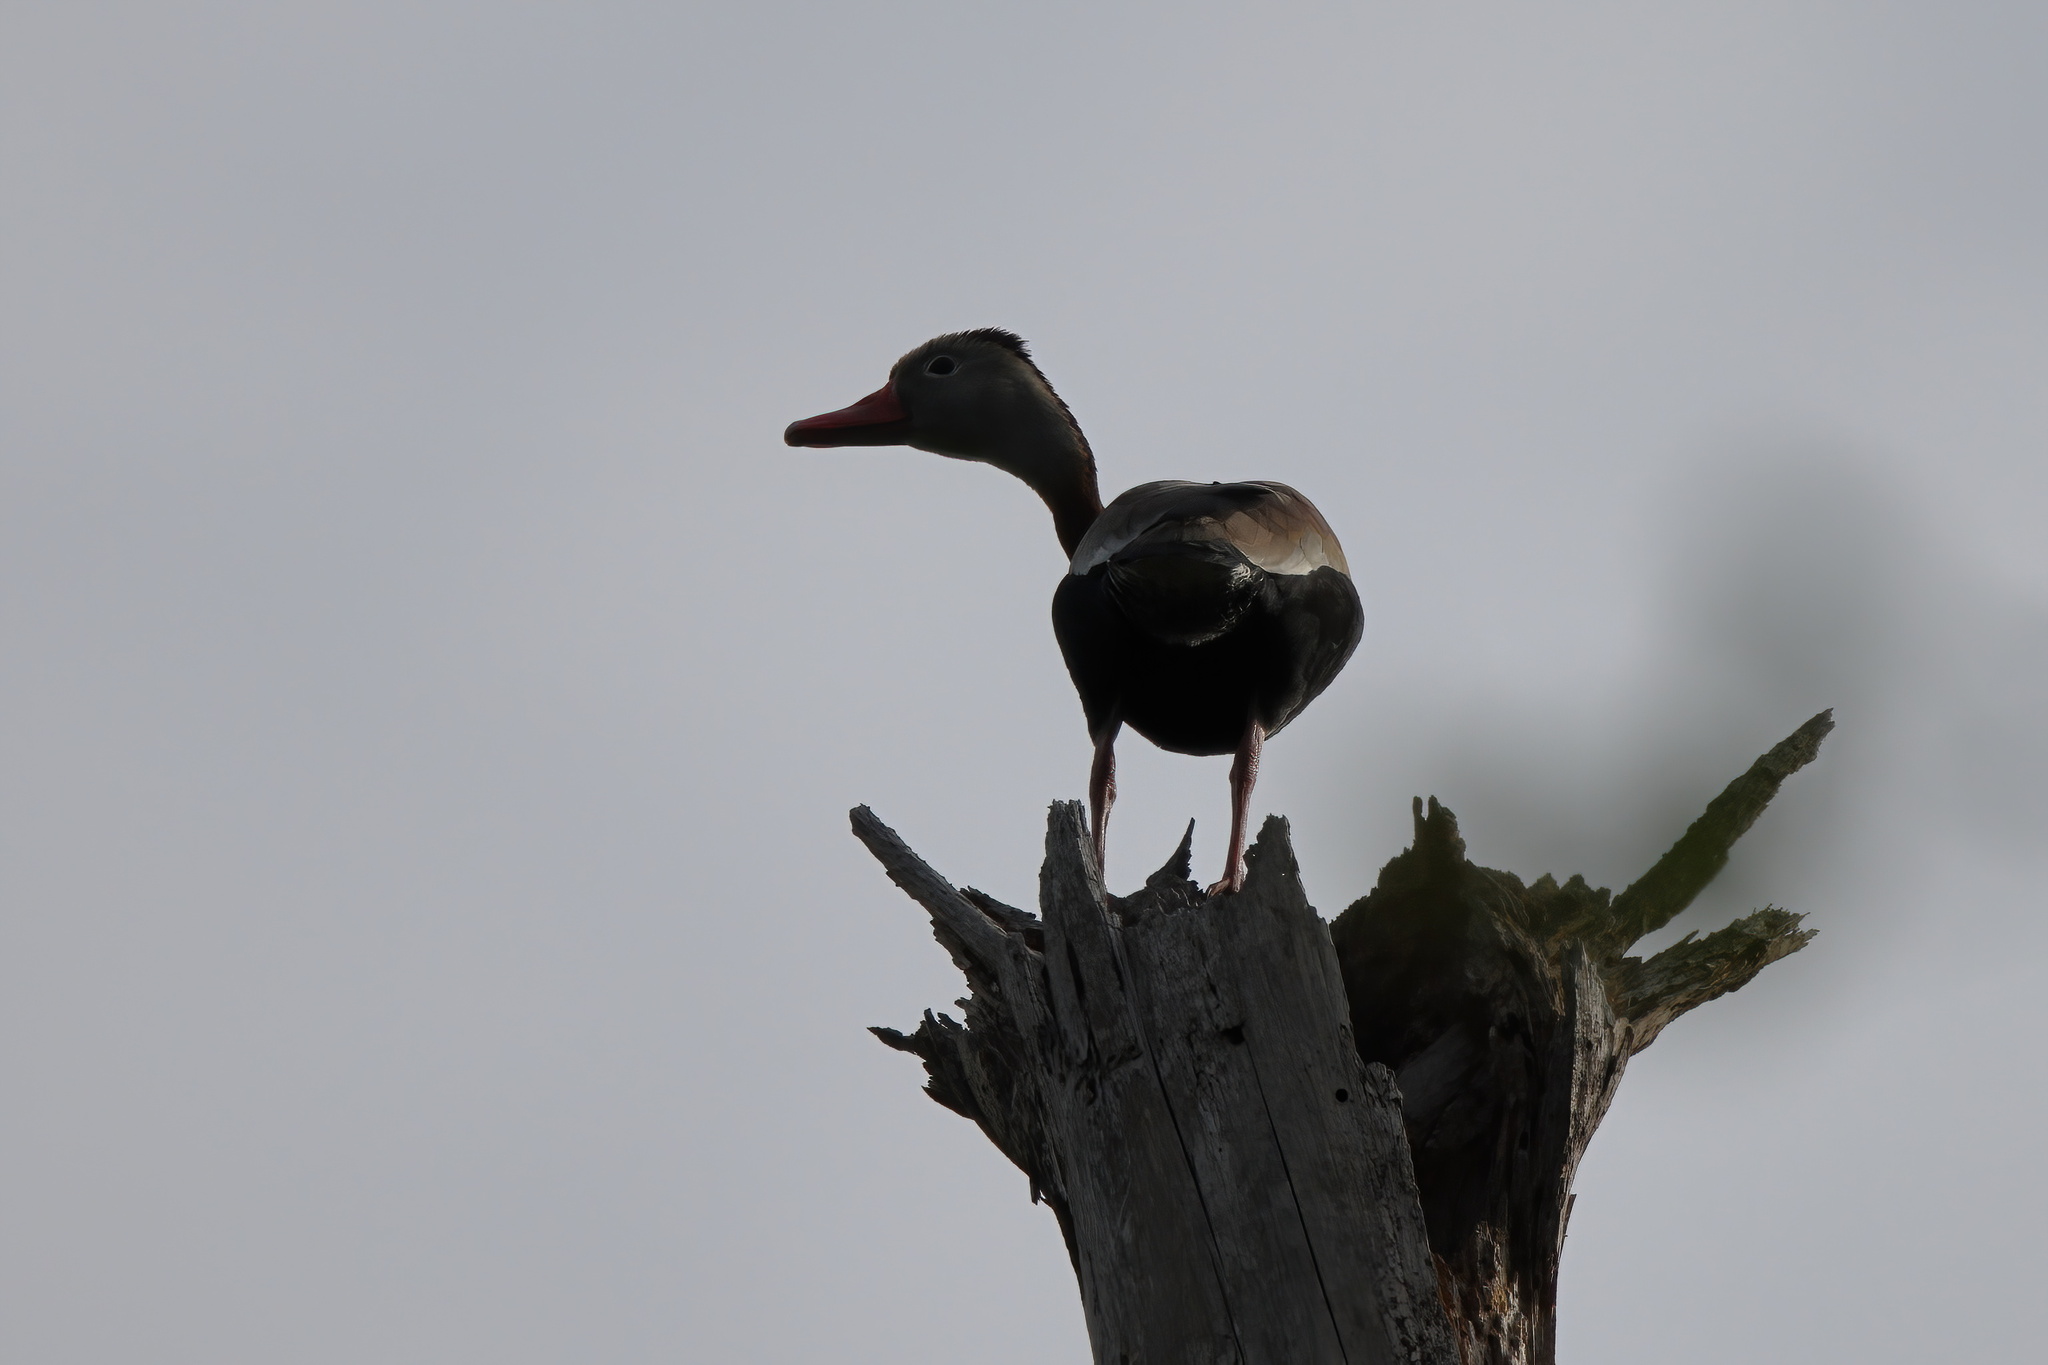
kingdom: Animalia
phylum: Chordata
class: Aves
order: Anseriformes
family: Anatidae
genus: Dendrocygna
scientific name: Dendrocygna autumnalis
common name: Black-bellied whistling duck
